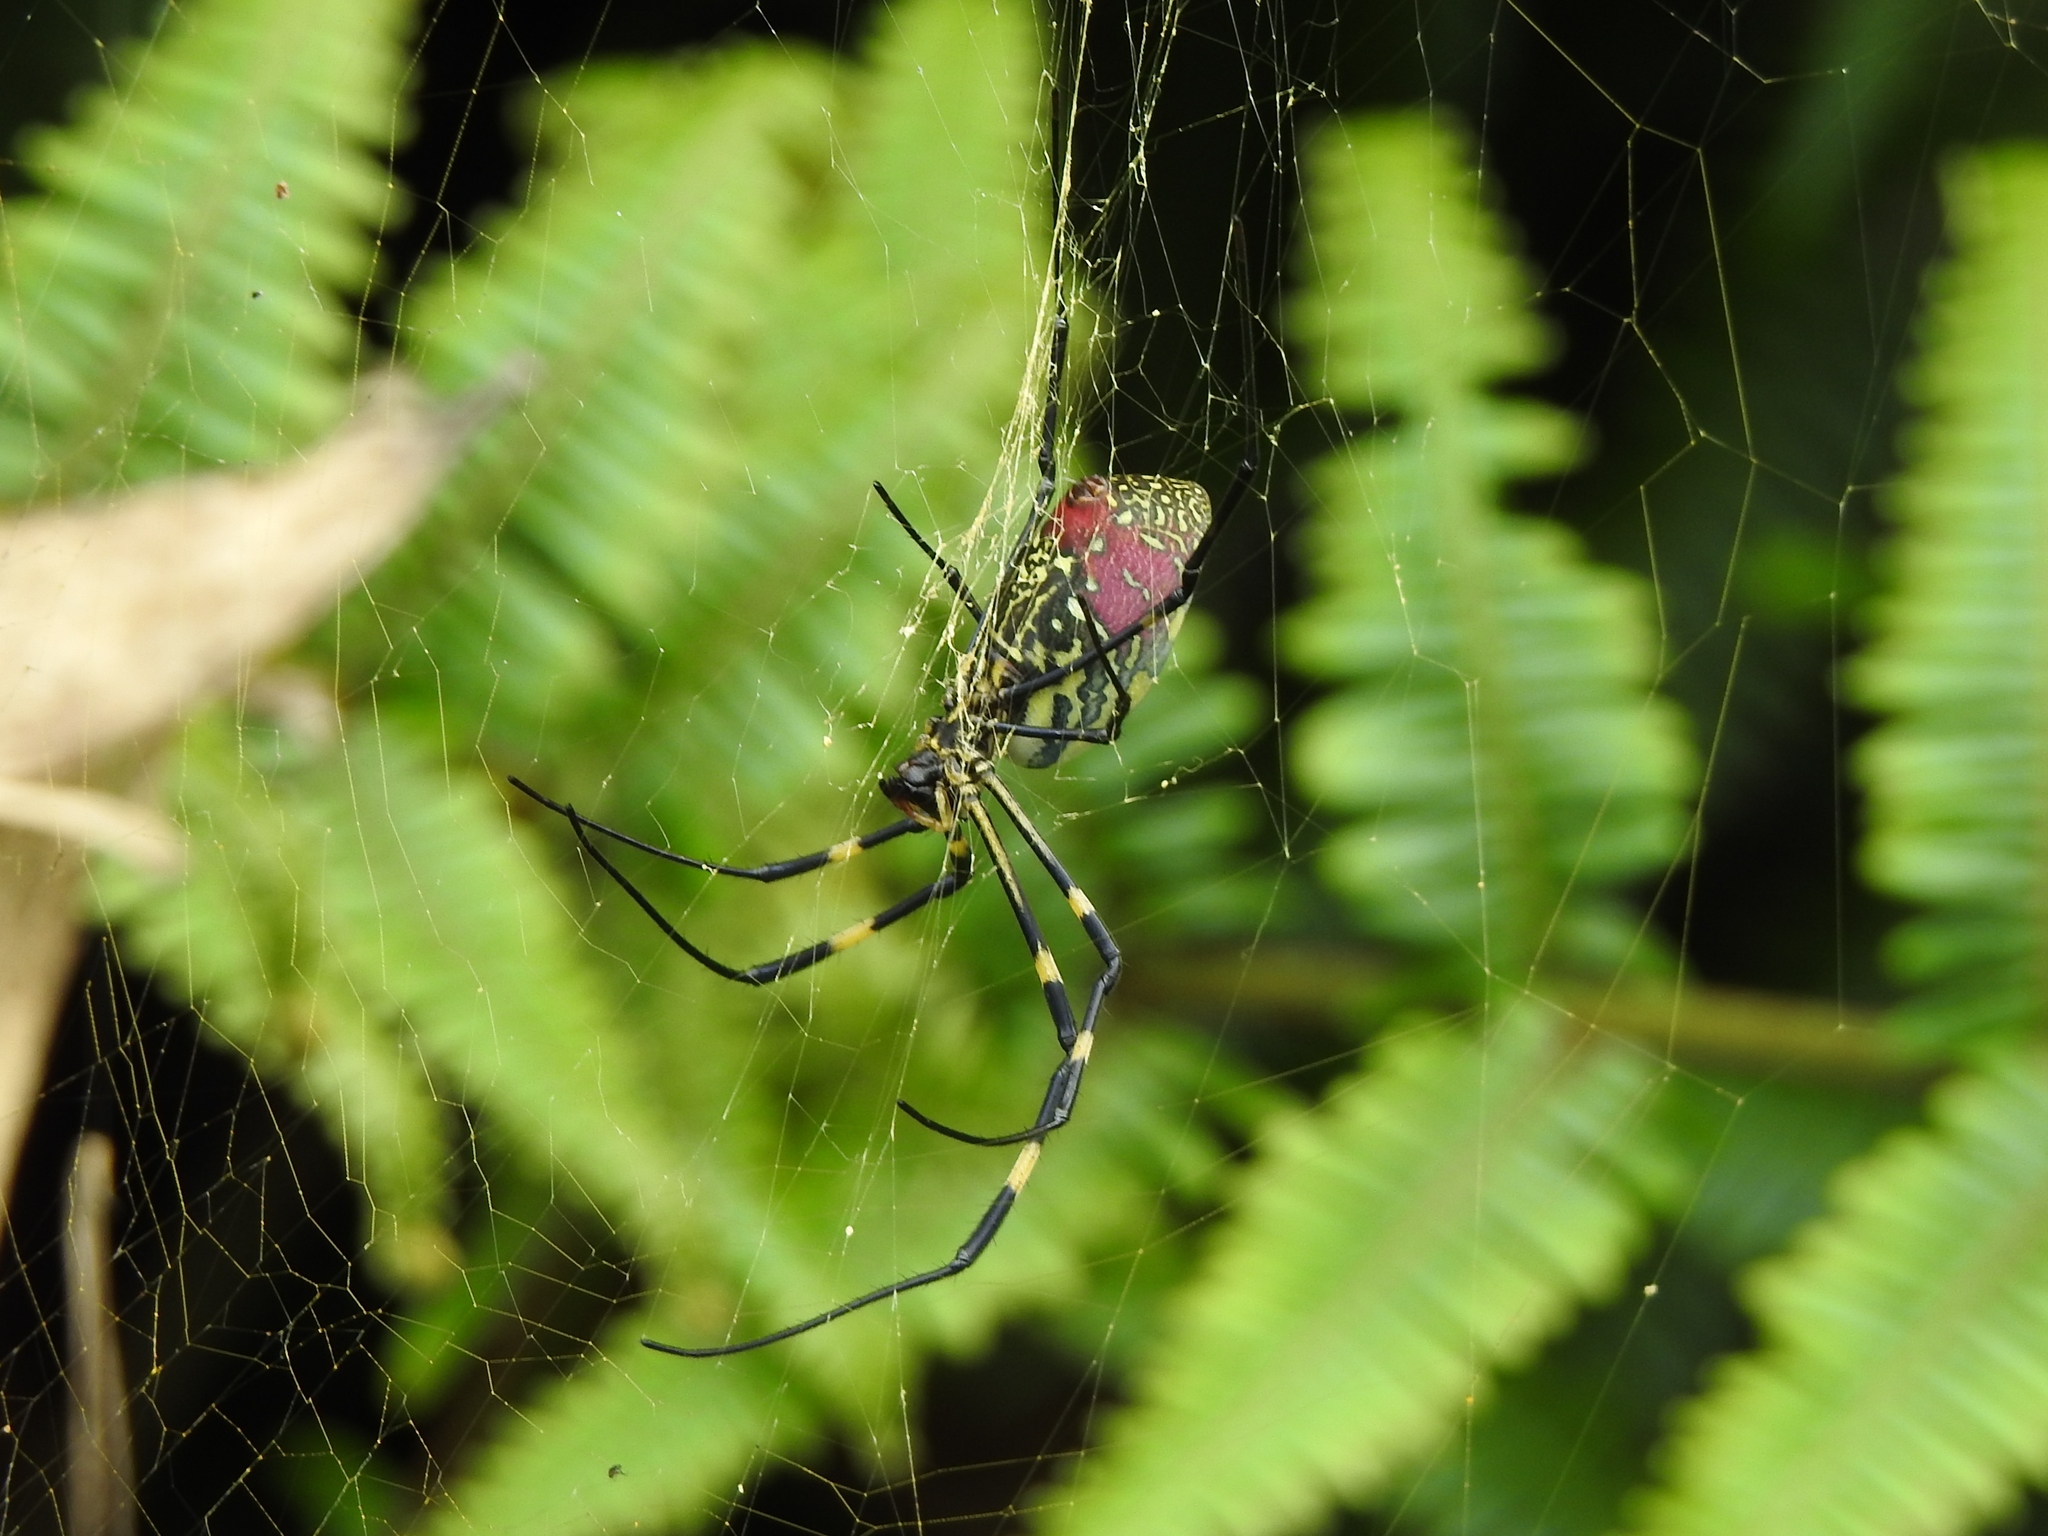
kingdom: Animalia
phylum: Arthropoda
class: Arachnida
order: Araneae
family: Araneidae
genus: Trichonephila
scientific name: Trichonephila clavata
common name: Jorō spider
